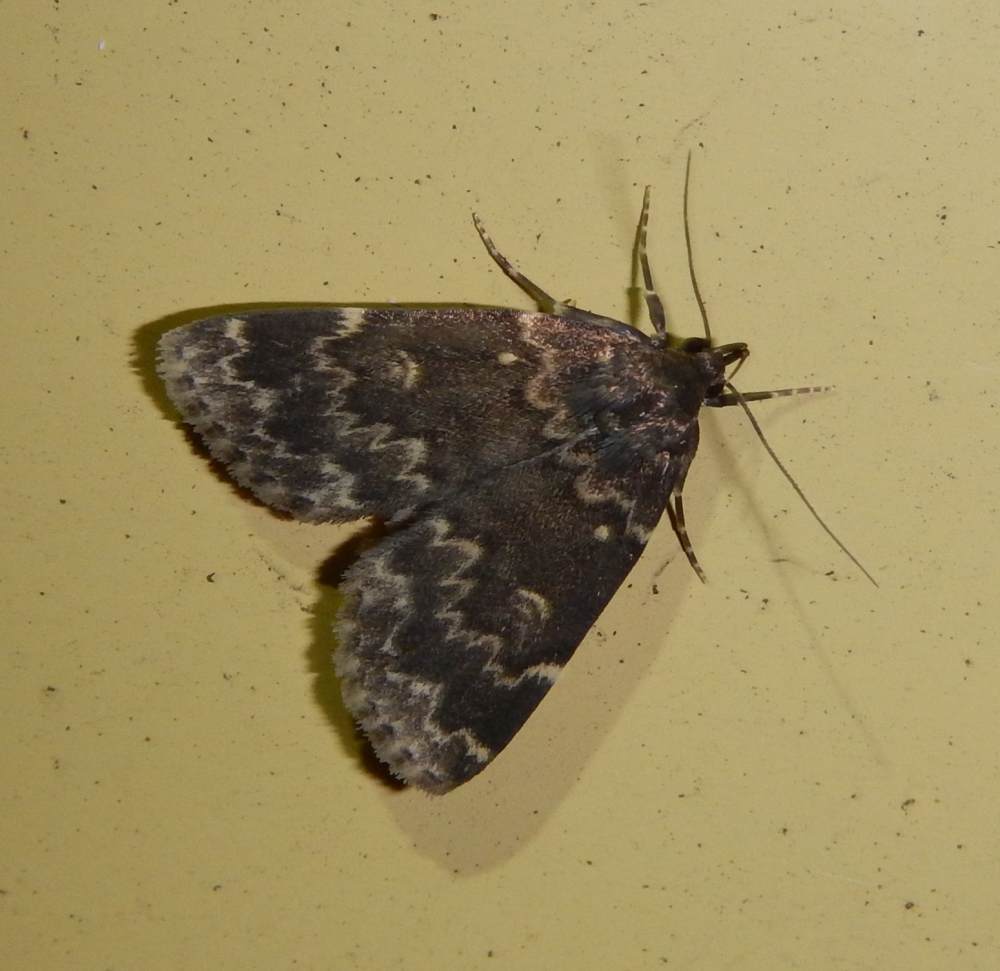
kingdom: Animalia
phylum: Arthropoda
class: Insecta
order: Lepidoptera
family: Erebidae
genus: Idia
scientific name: Idia lubricalis
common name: Twin-striped tabby
